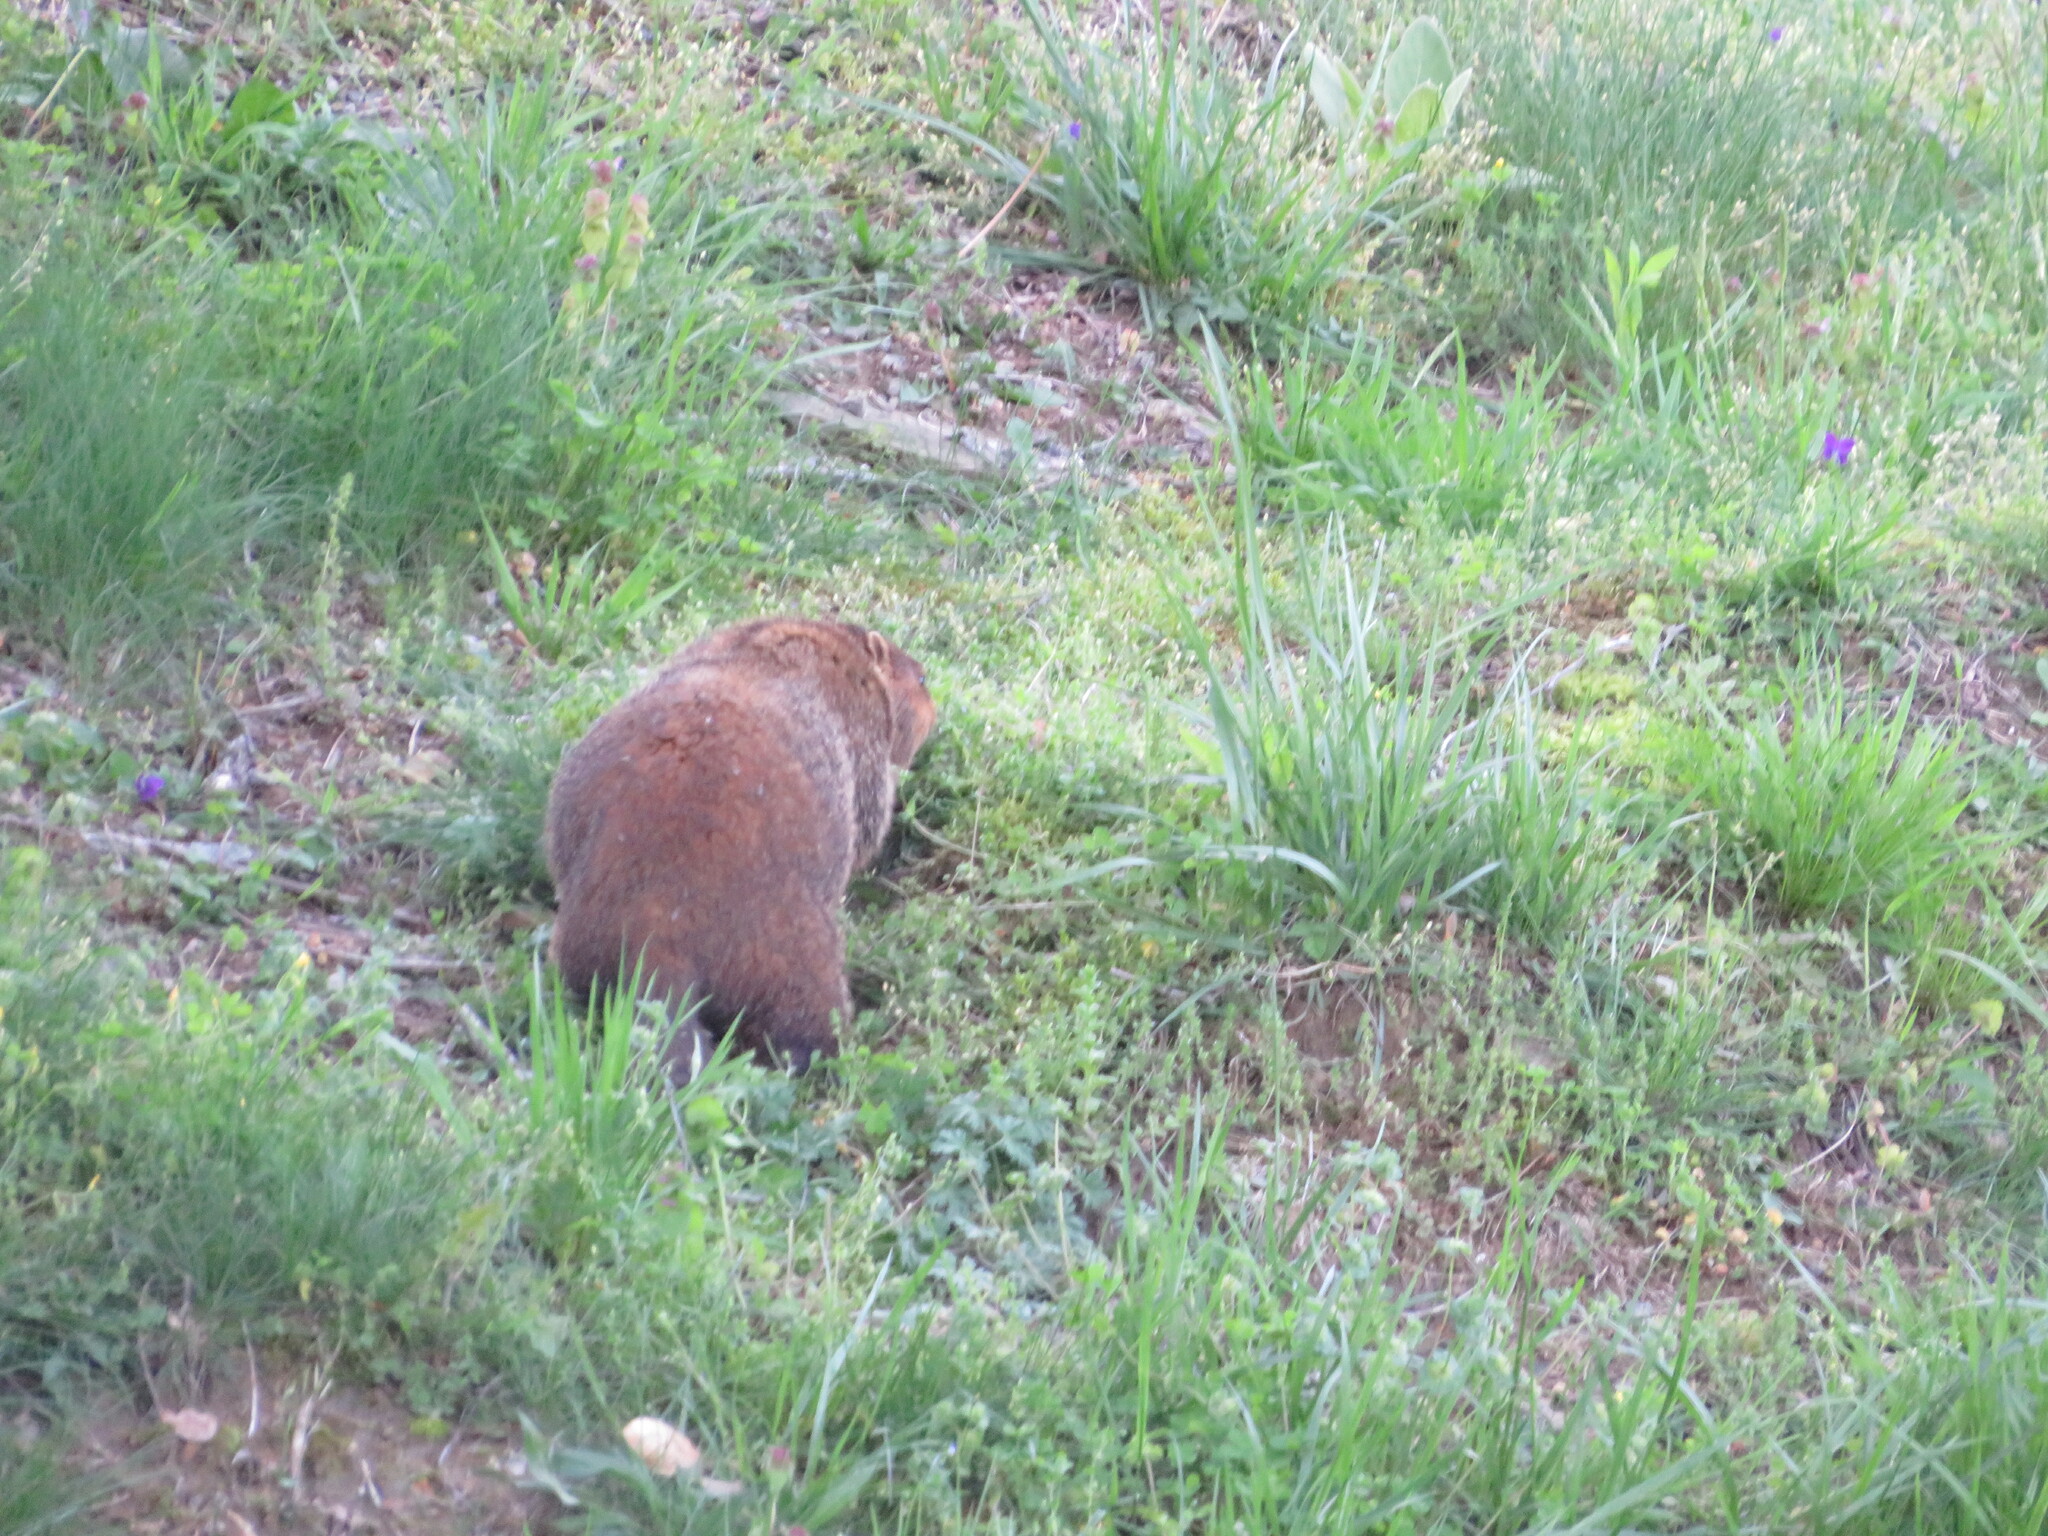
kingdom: Plantae
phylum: Tracheophyta
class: Magnoliopsida
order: Lamiales
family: Lamiaceae
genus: Lamium
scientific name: Lamium purpureum
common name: Red dead-nettle
